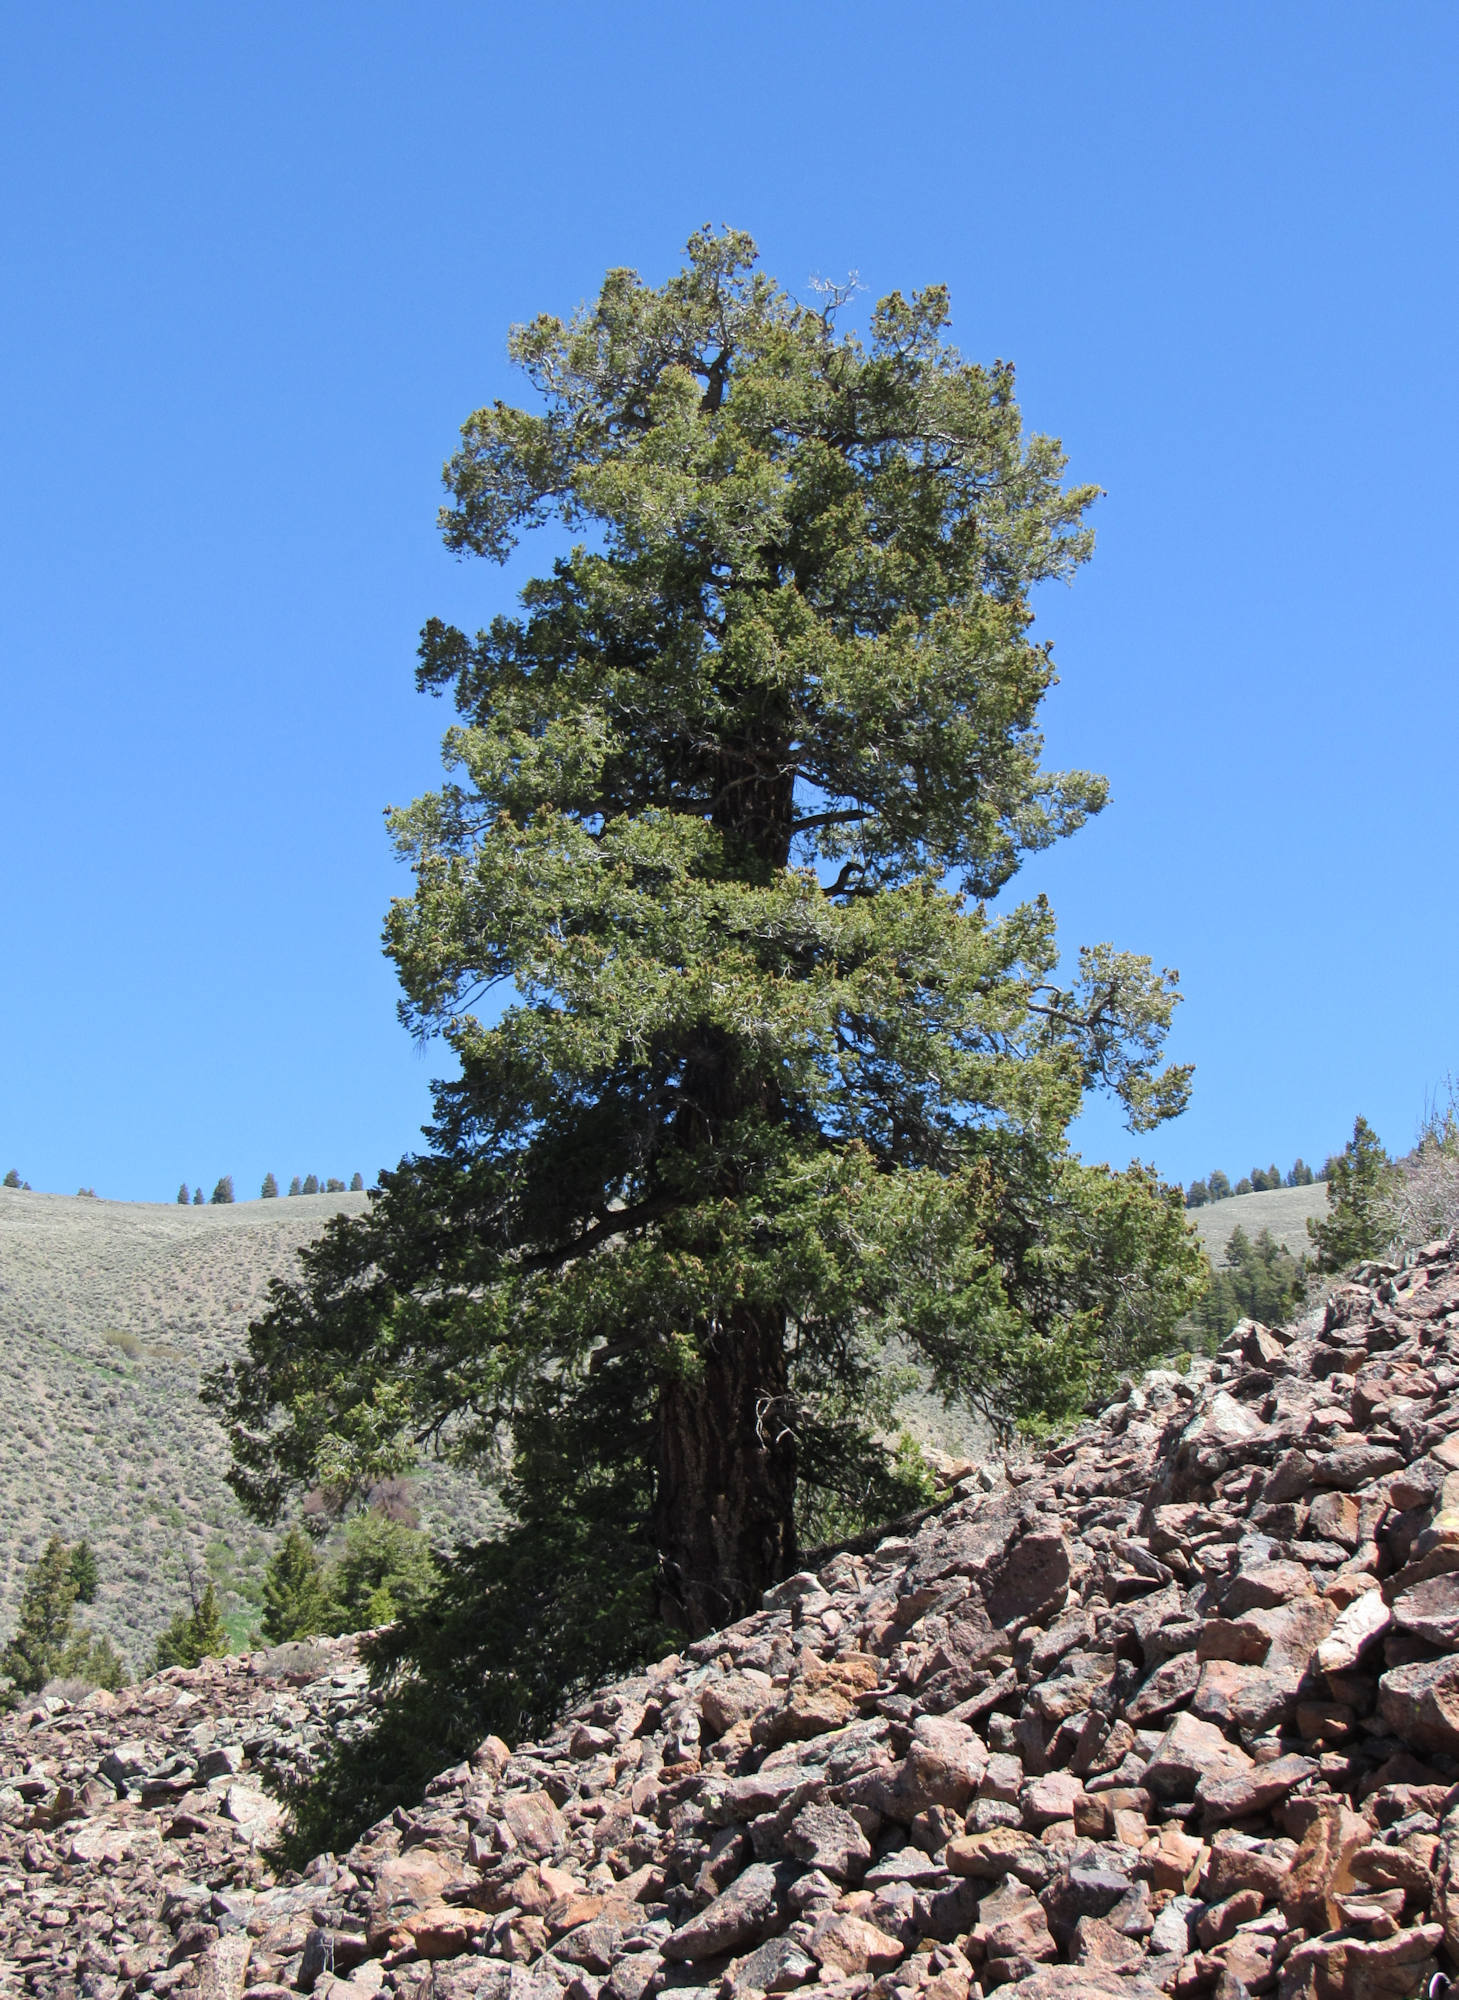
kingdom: Plantae
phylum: Tracheophyta
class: Pinopsida
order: Pinales
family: Pinaceae
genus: Pseudotsuga
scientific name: Pseudotsuga menziesii
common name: Douglas fir
